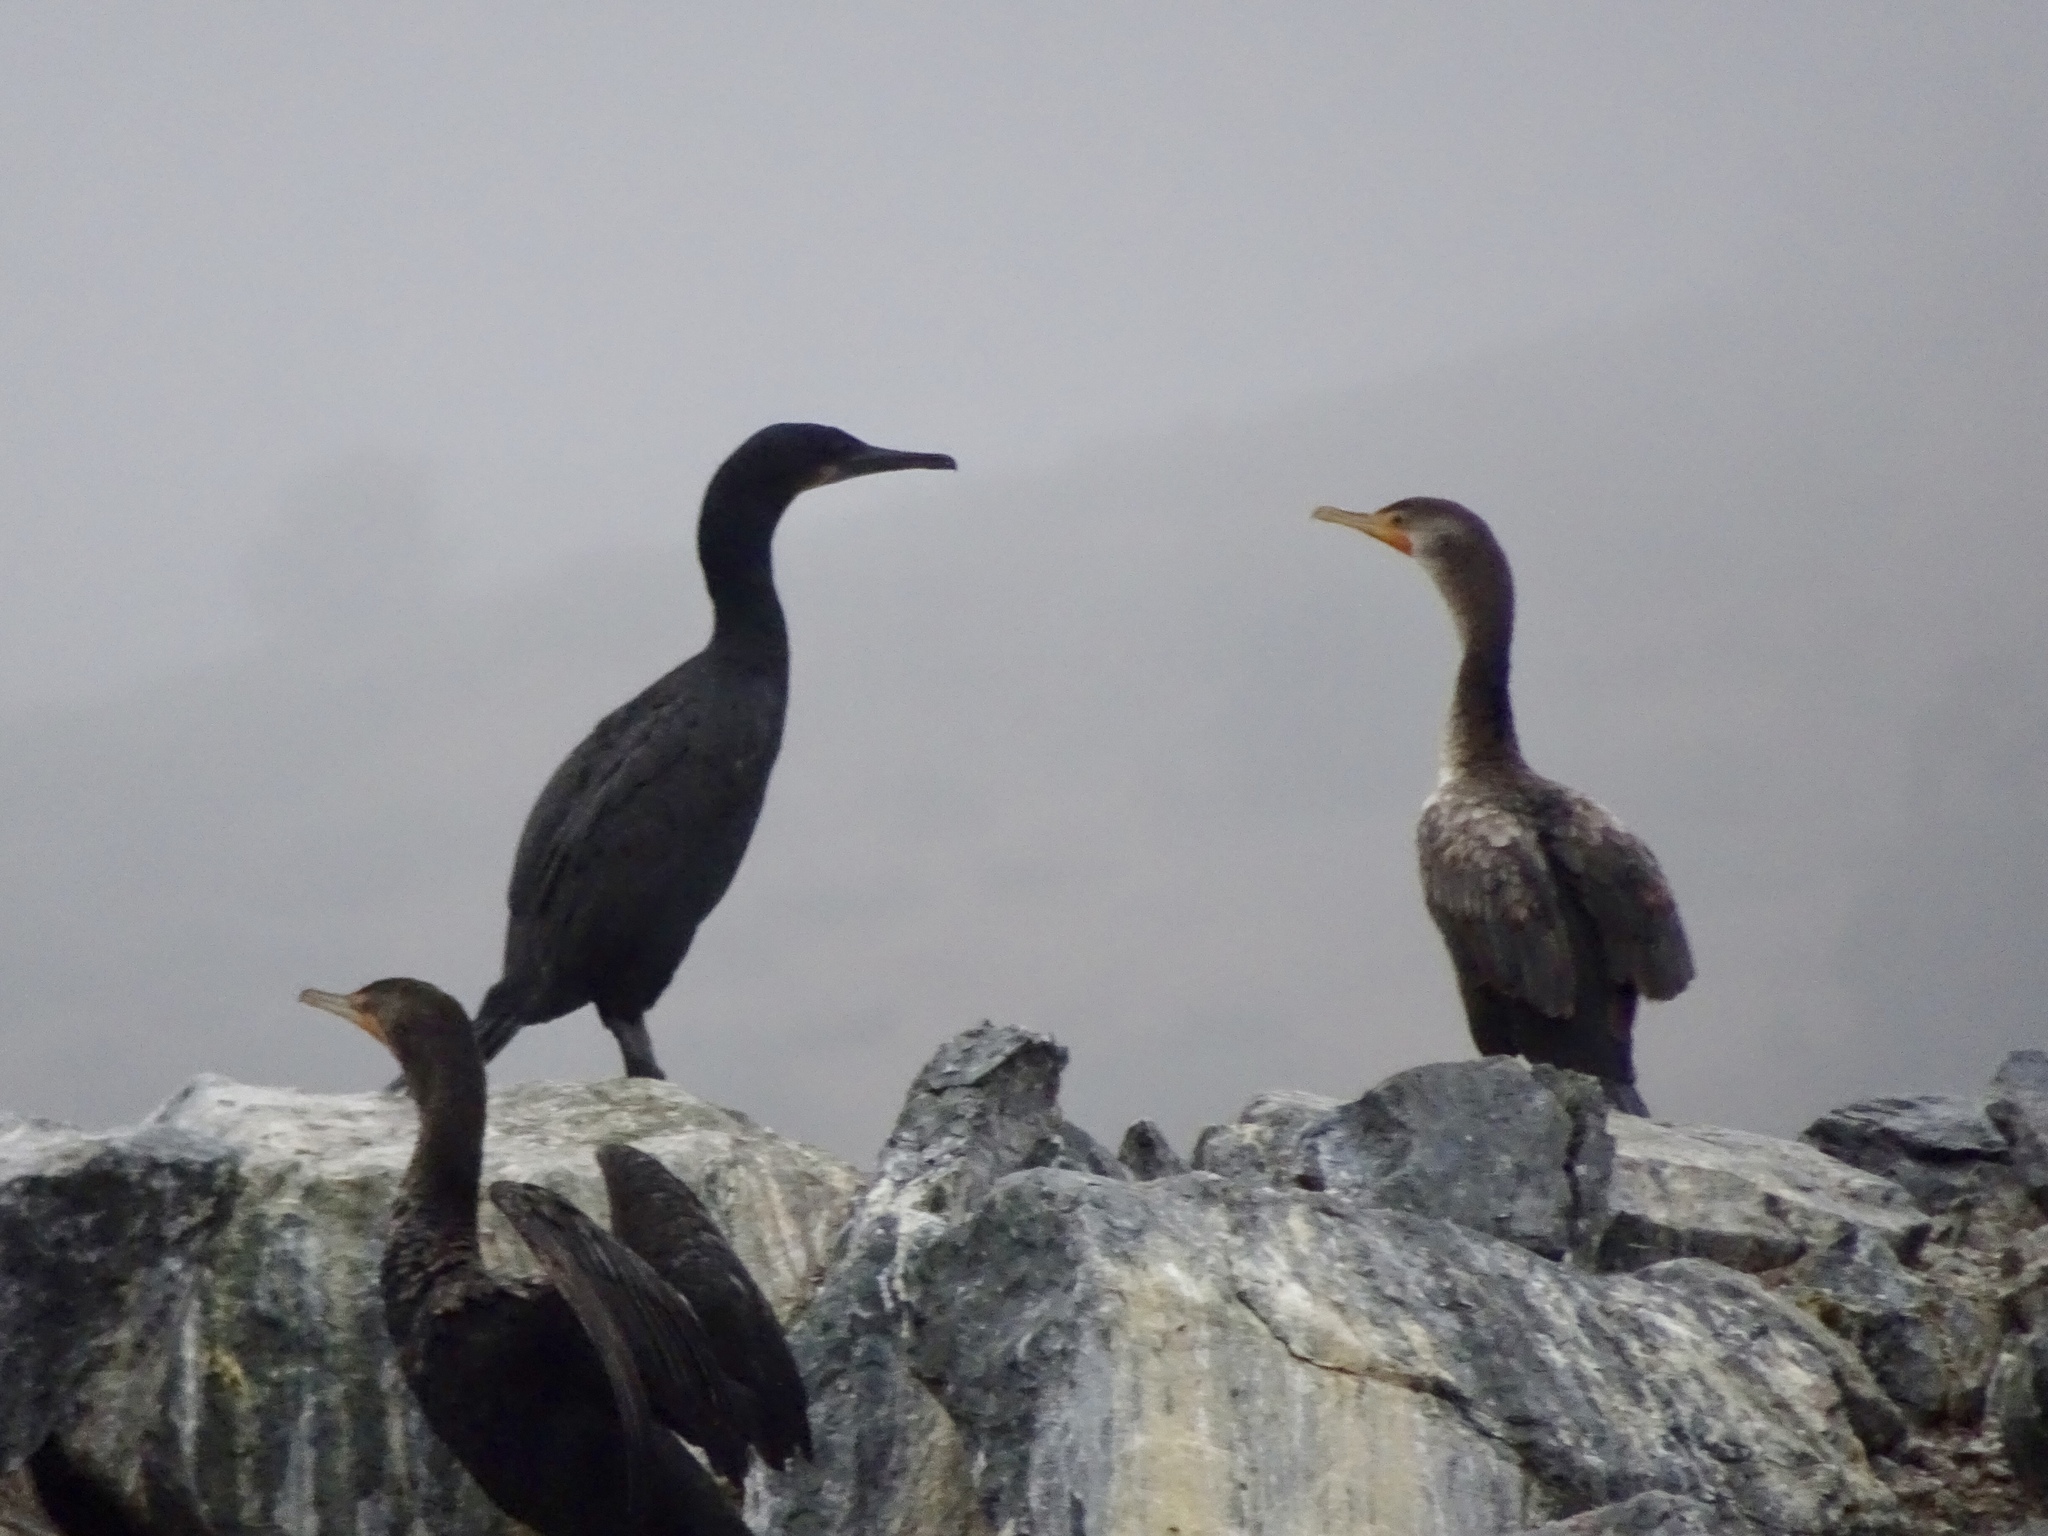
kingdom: Animalia
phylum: Chordata
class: Aves
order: Suliformes
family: Phalacrocoracidae
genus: Urile
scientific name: Urile penicillatus
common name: Brandt's cormorant
